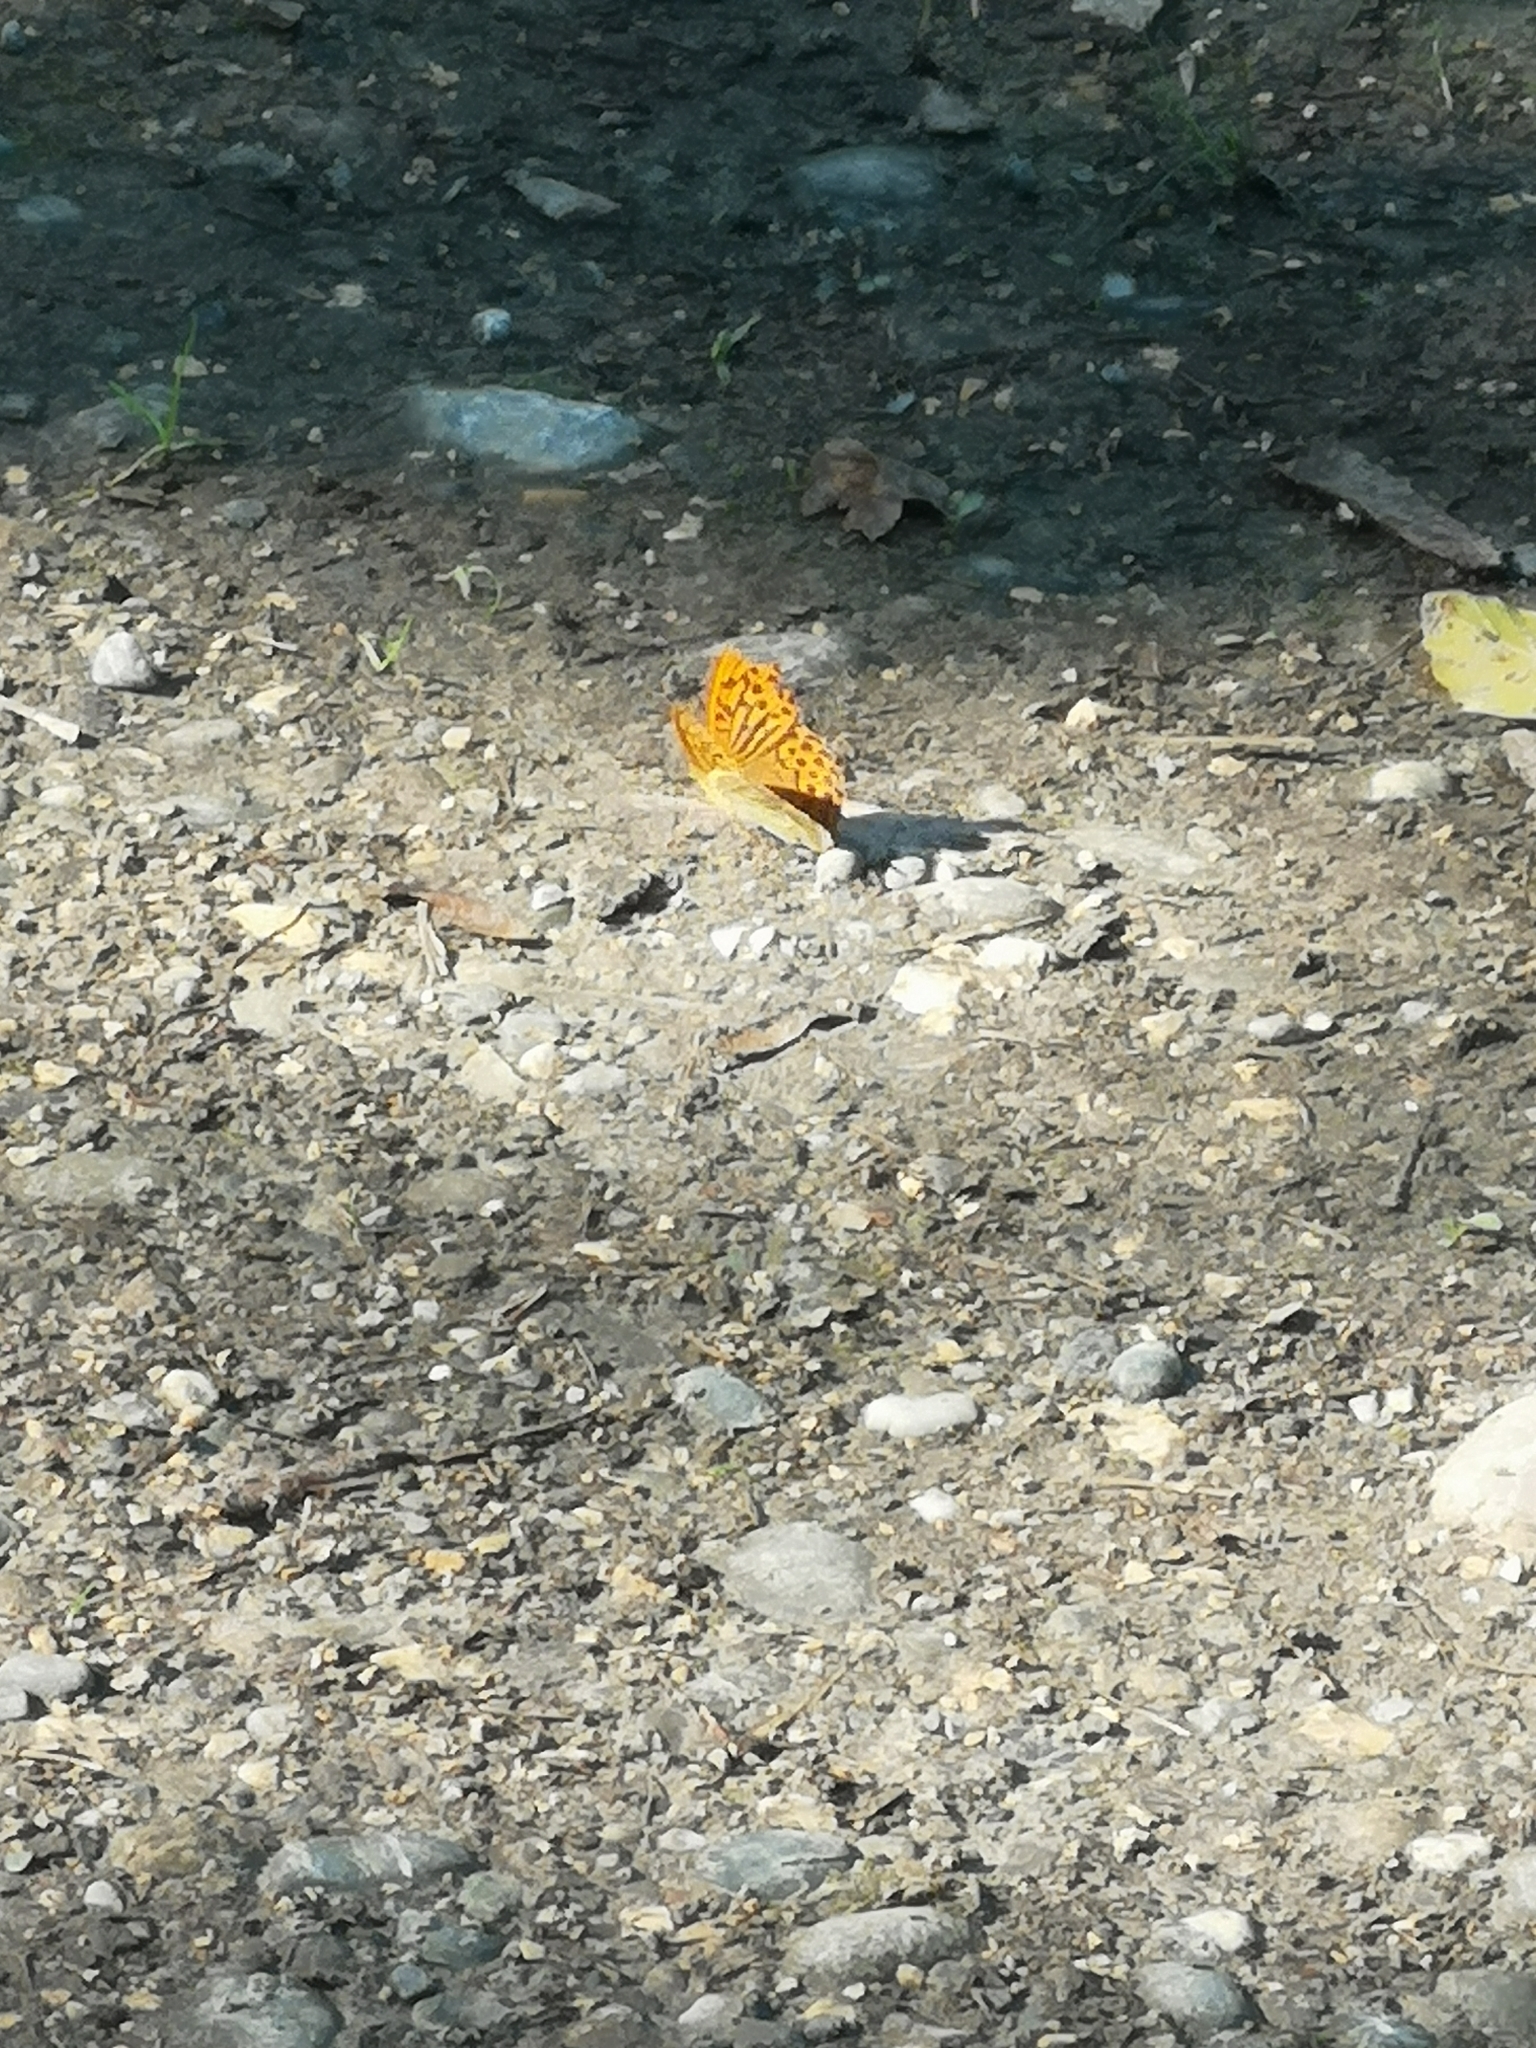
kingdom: Animalia
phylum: Arthropoda
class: Insecta
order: Lepidoptera
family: Nymphalidae
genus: Argynnis
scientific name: Argynnis paphia
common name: Silver-washed fritillary
